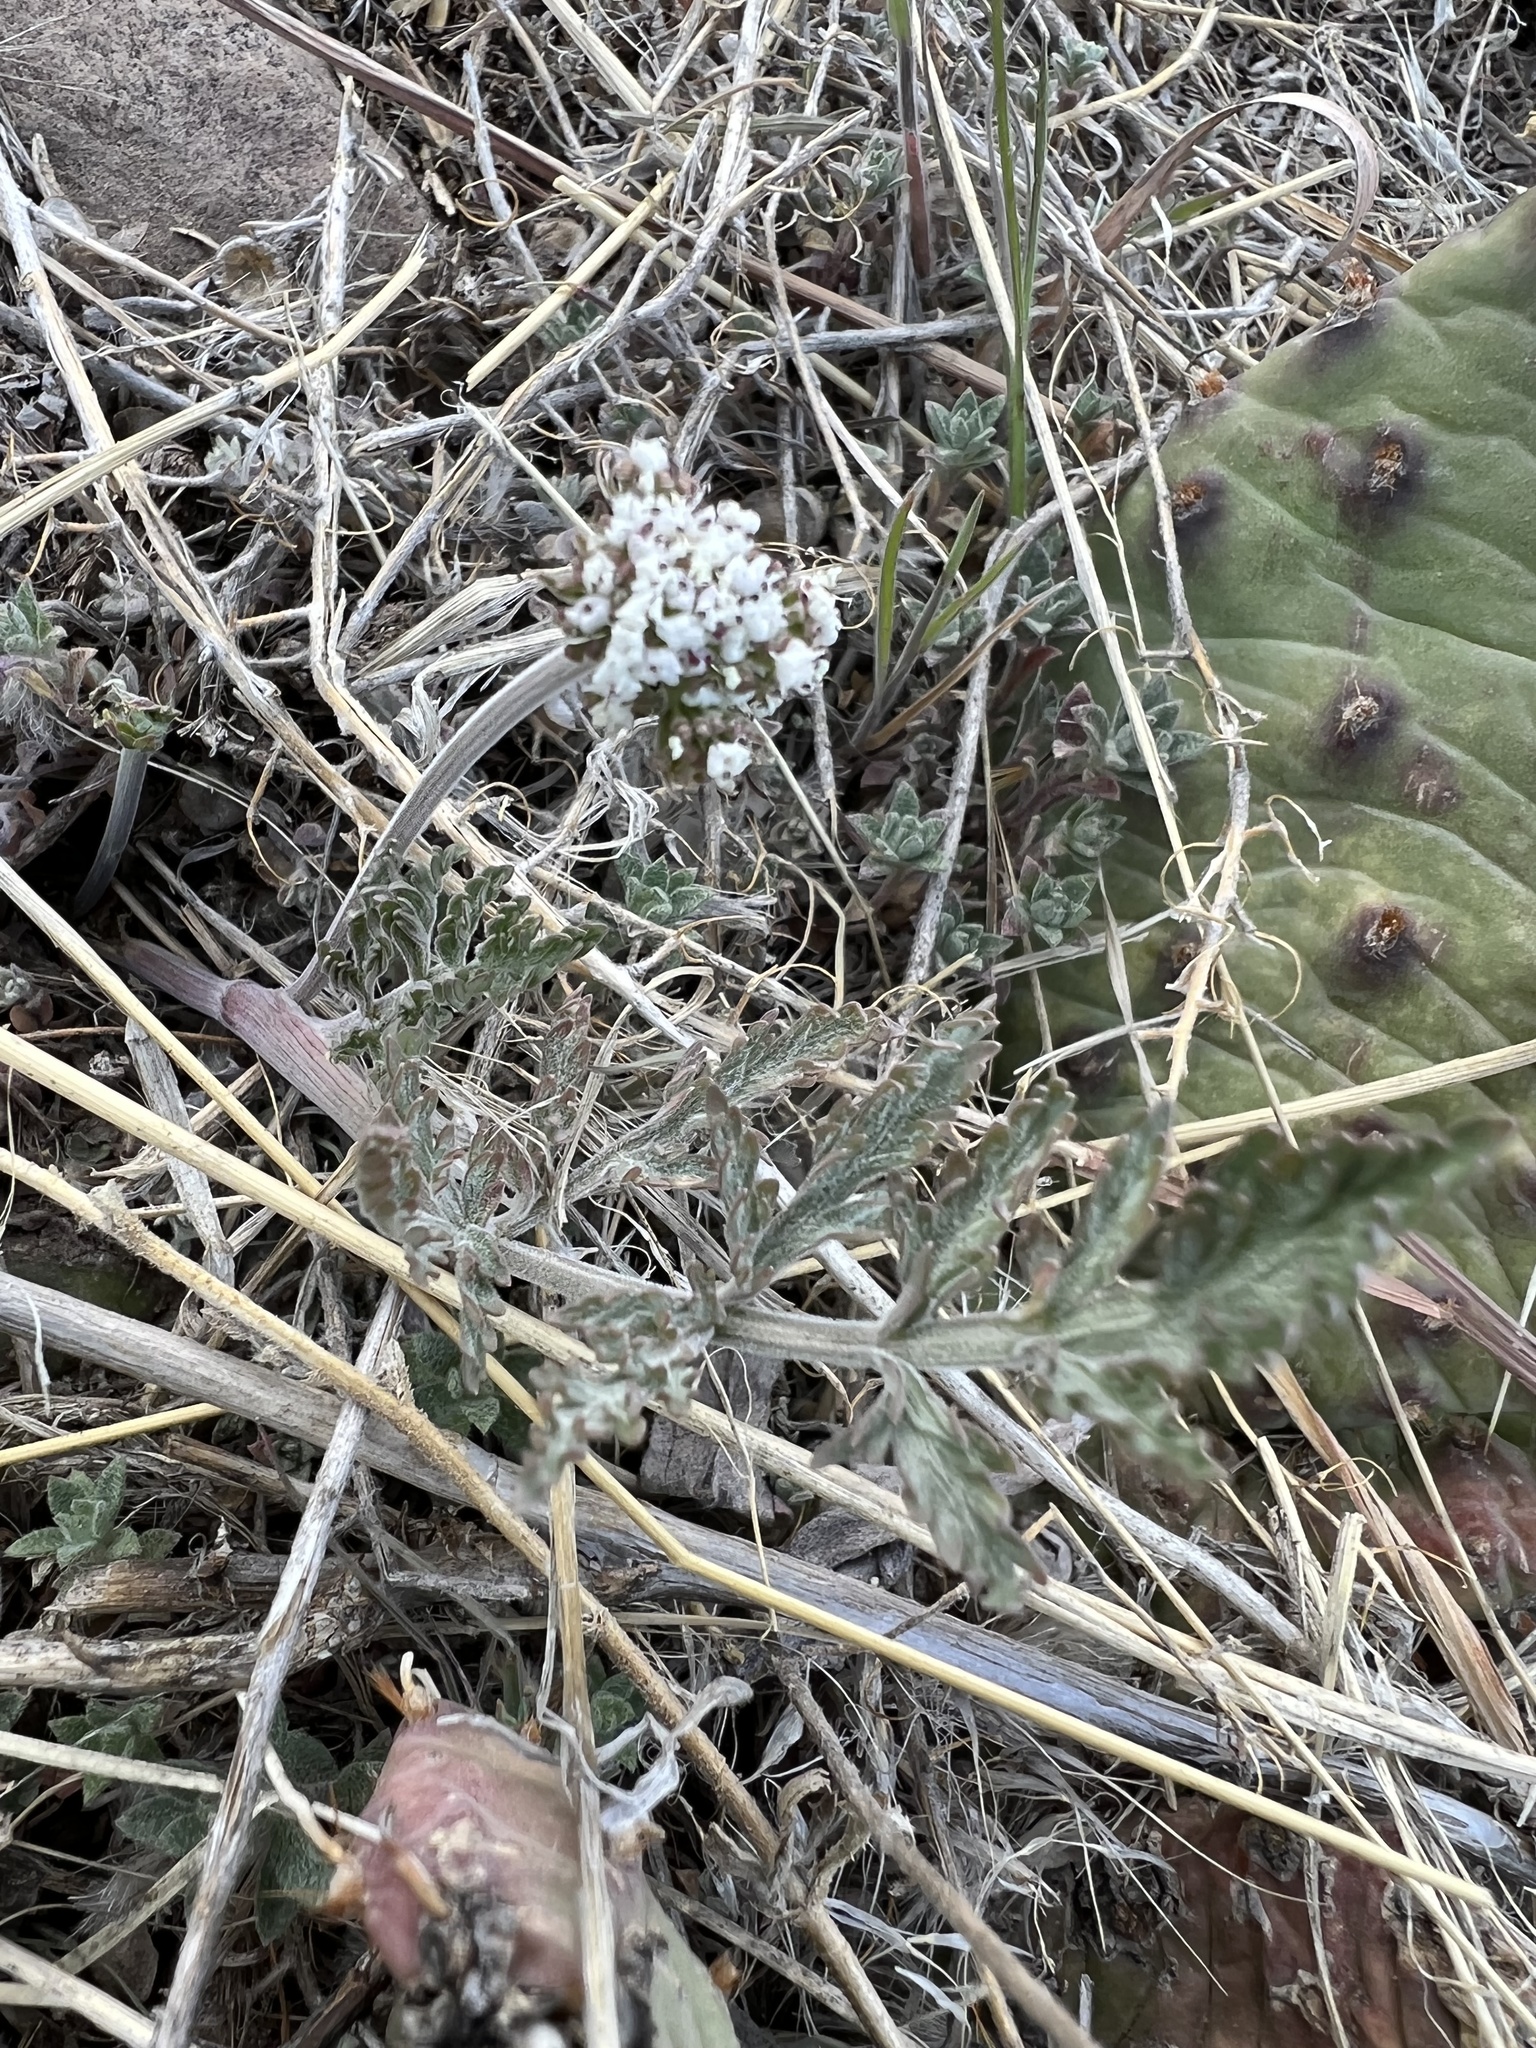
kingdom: Plantae
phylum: Tracheophyta
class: Magnoliopsida
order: Apiales
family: Apiaceae
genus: Lomatium
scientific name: Lomatium orientale
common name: Eastern cous
